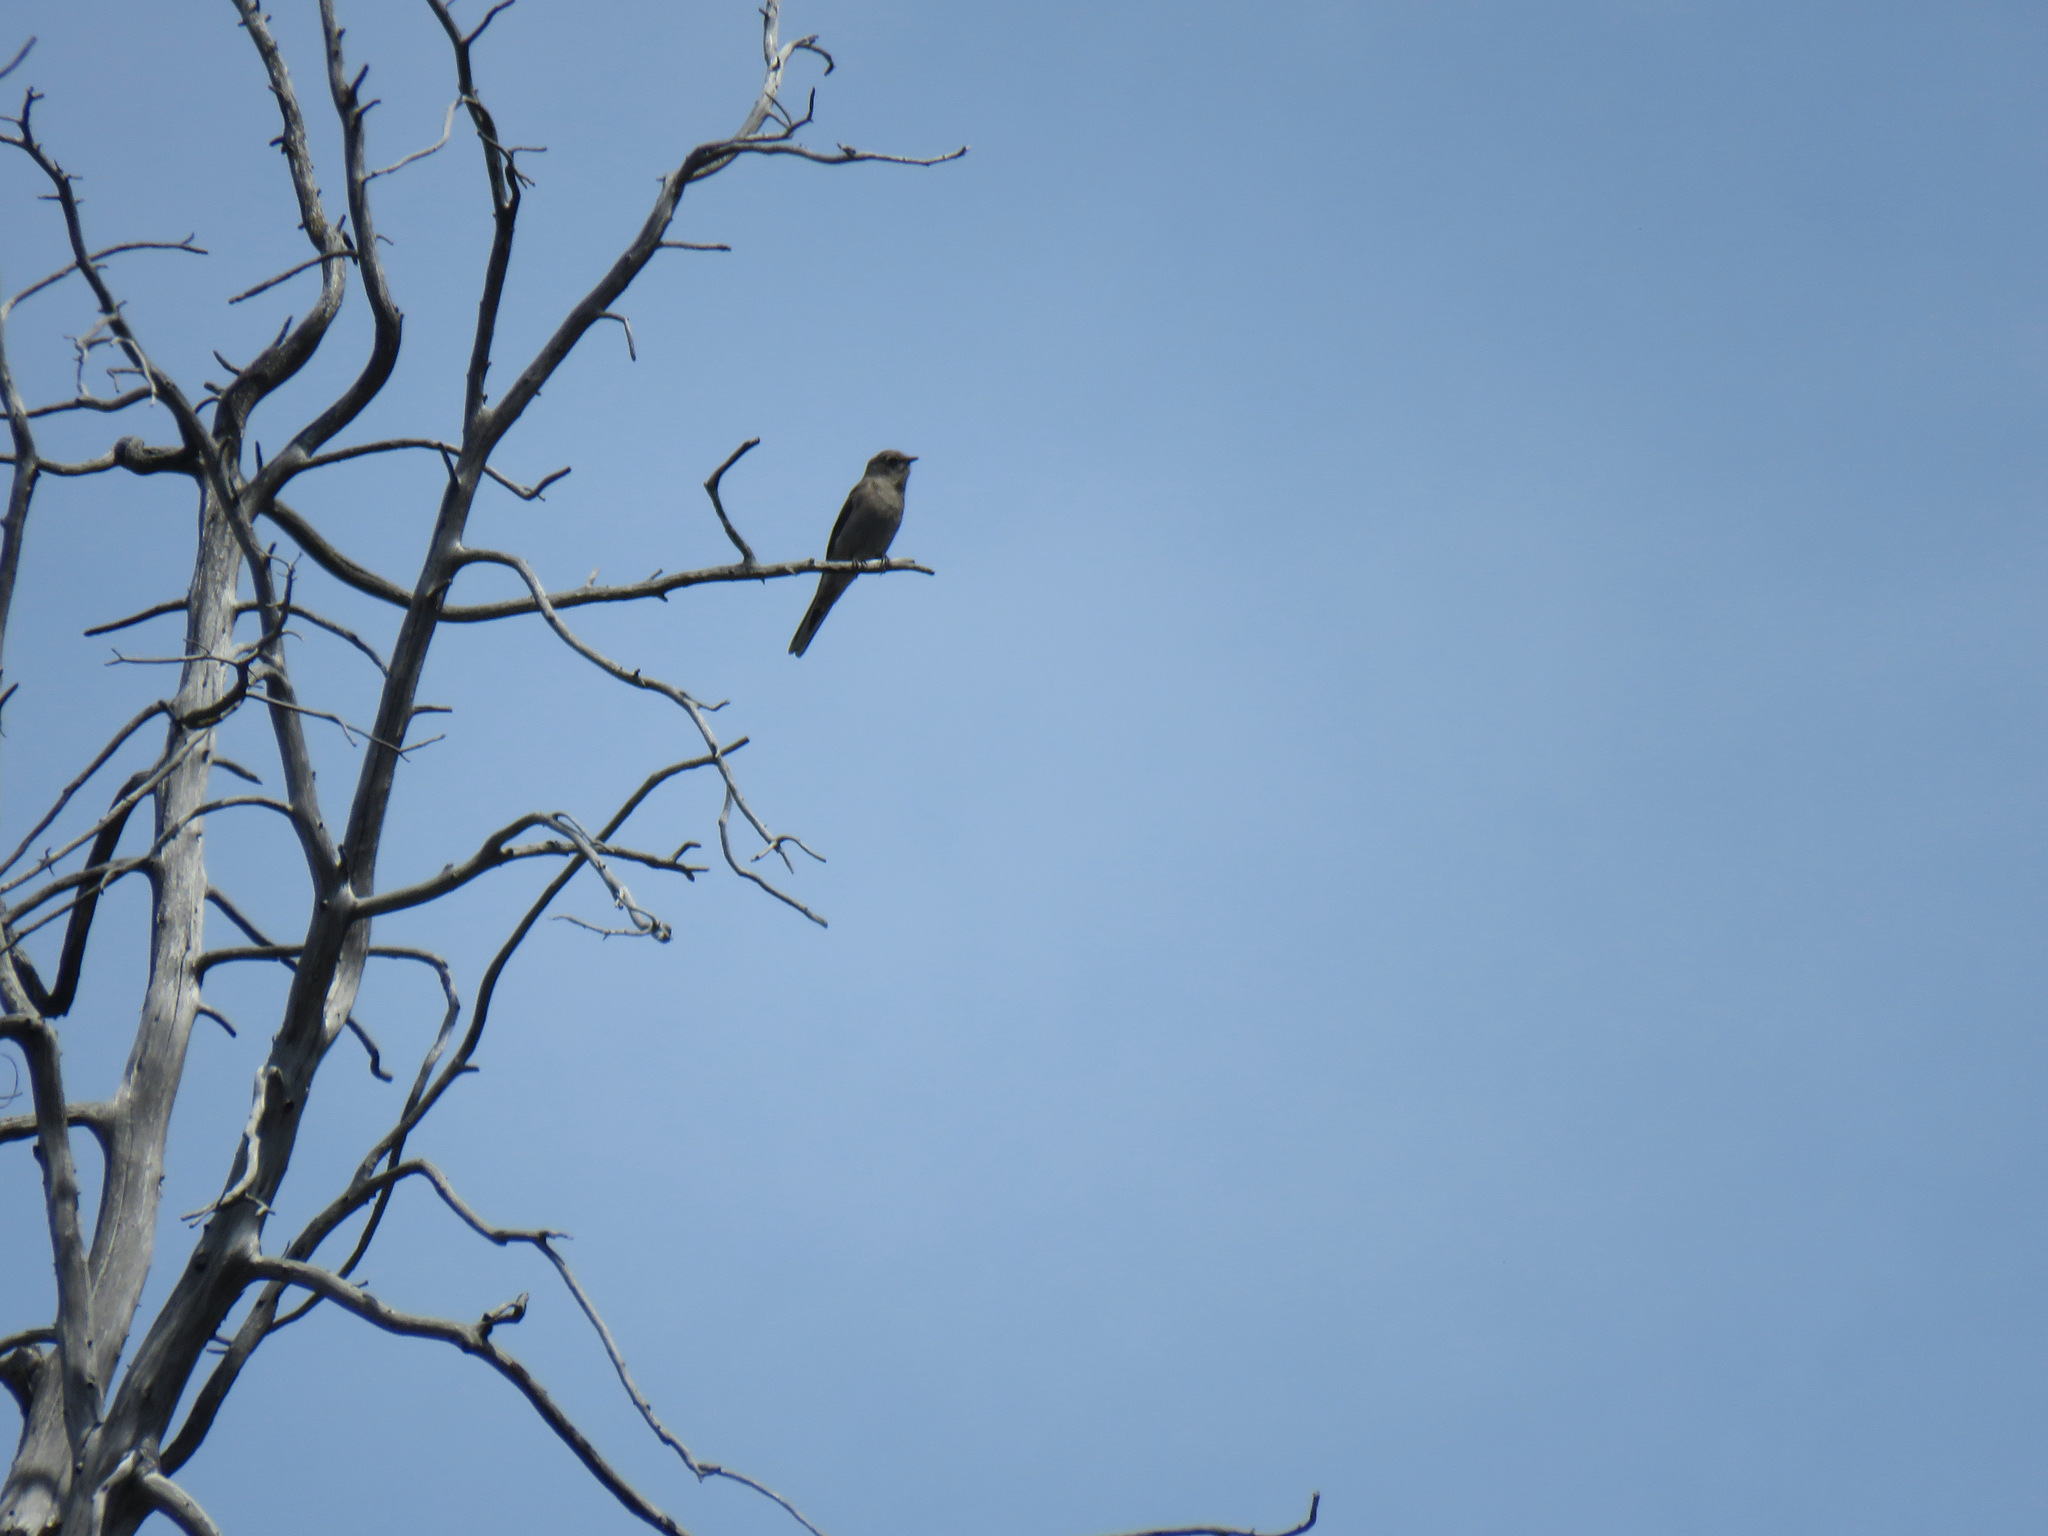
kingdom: Animalia
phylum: Chordata
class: Aves
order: Passeriformes
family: Turdidae
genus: Myadestes
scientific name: Myadestes townsendi
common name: Townsend's solitaire
